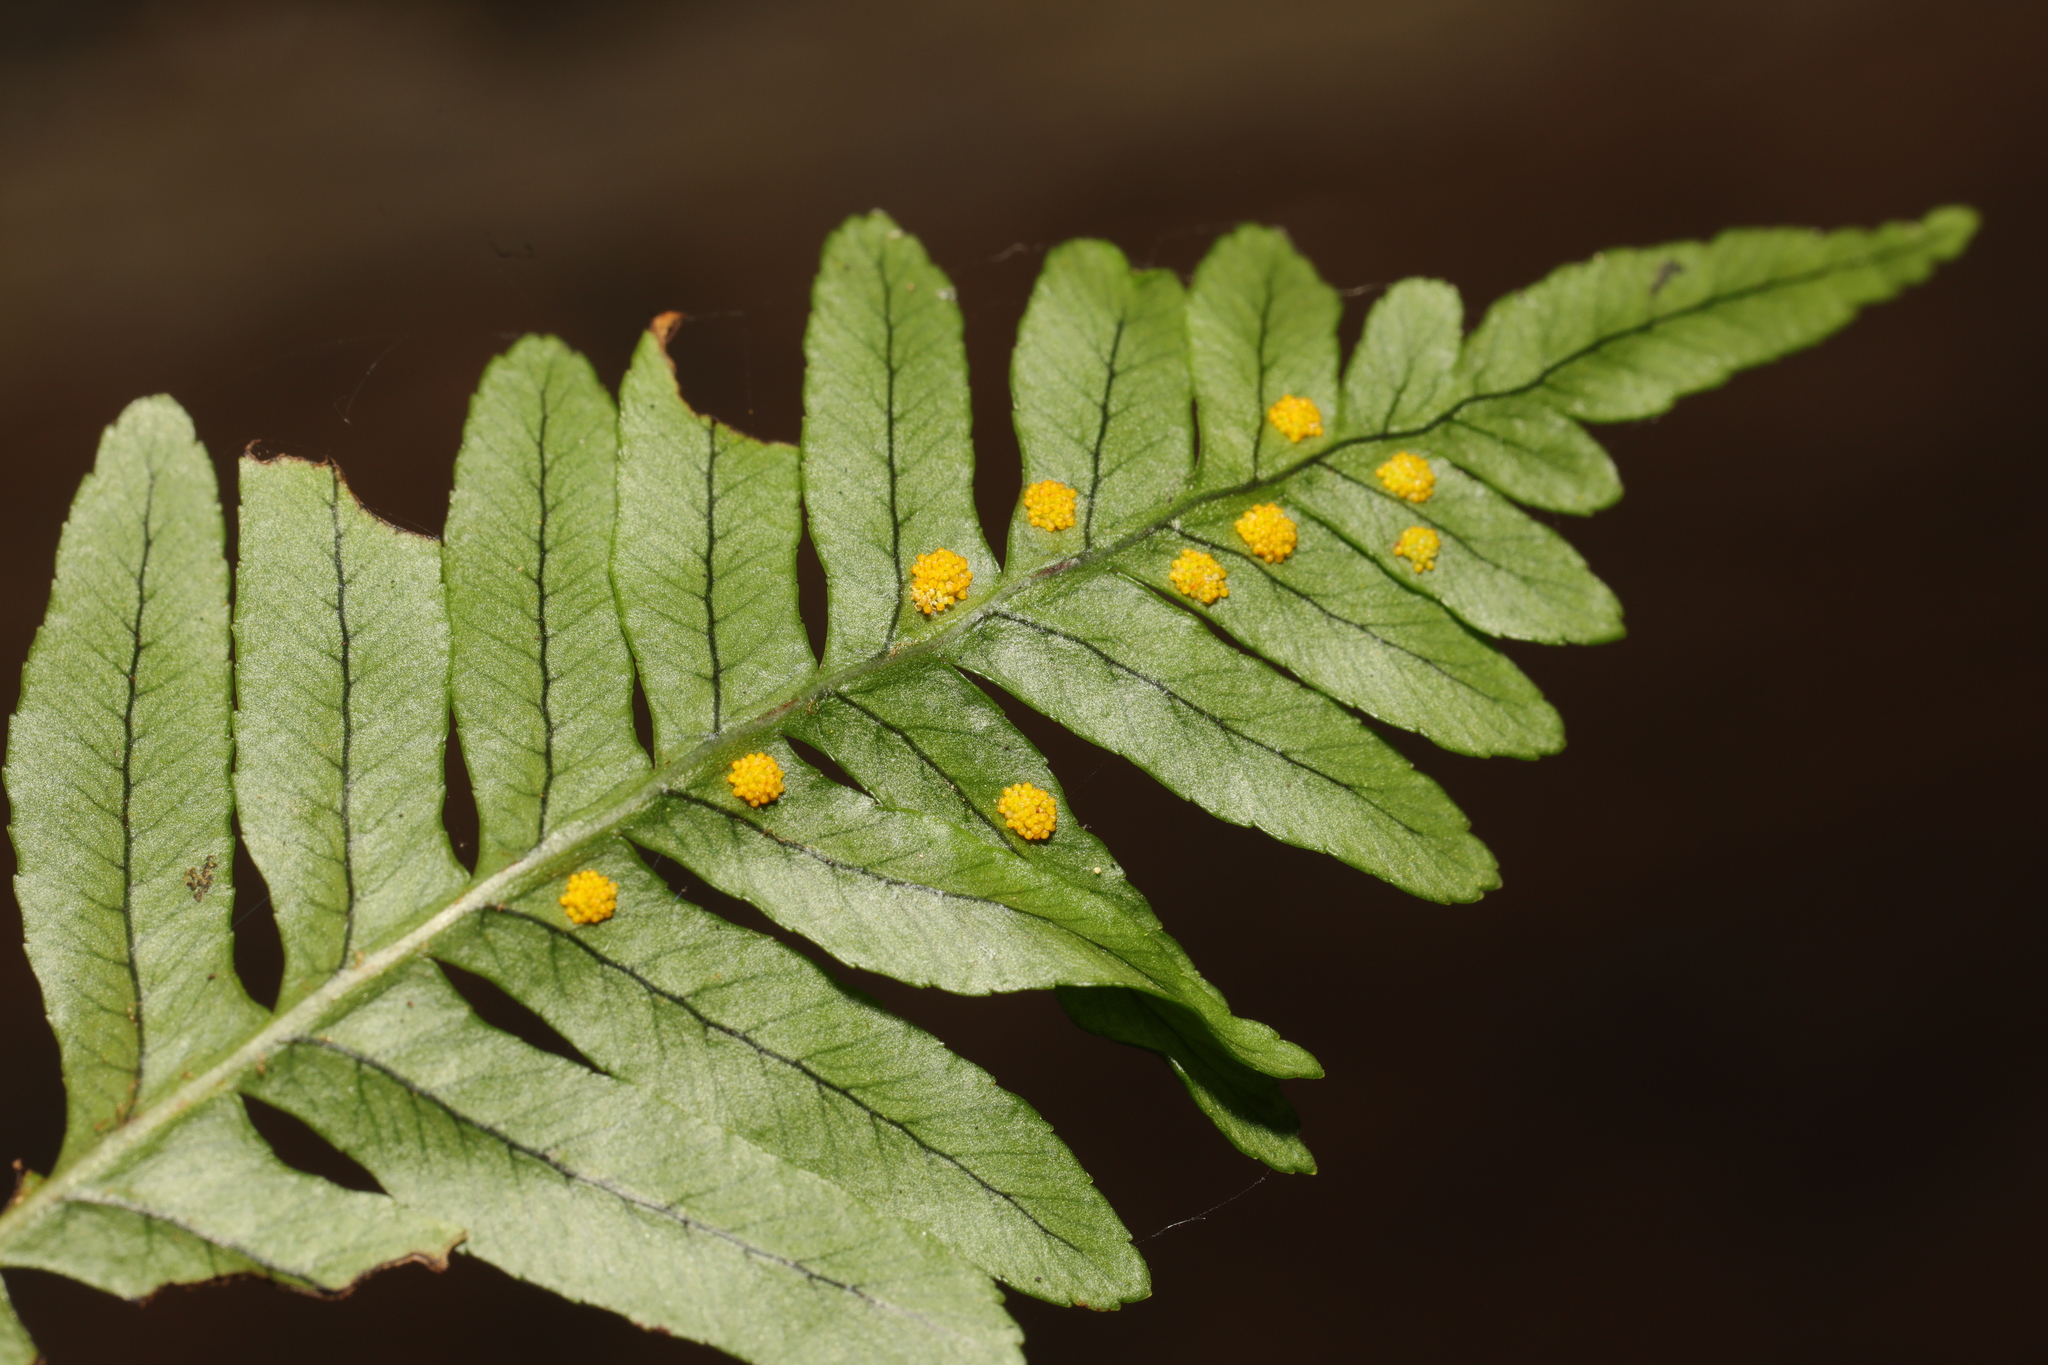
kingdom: Plantae
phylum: Tracheophyta
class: Polypodiopsida
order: Polypodiales
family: Polypodiaceae
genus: Polypodium
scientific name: Polypodium vulgare
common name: Common polypody
